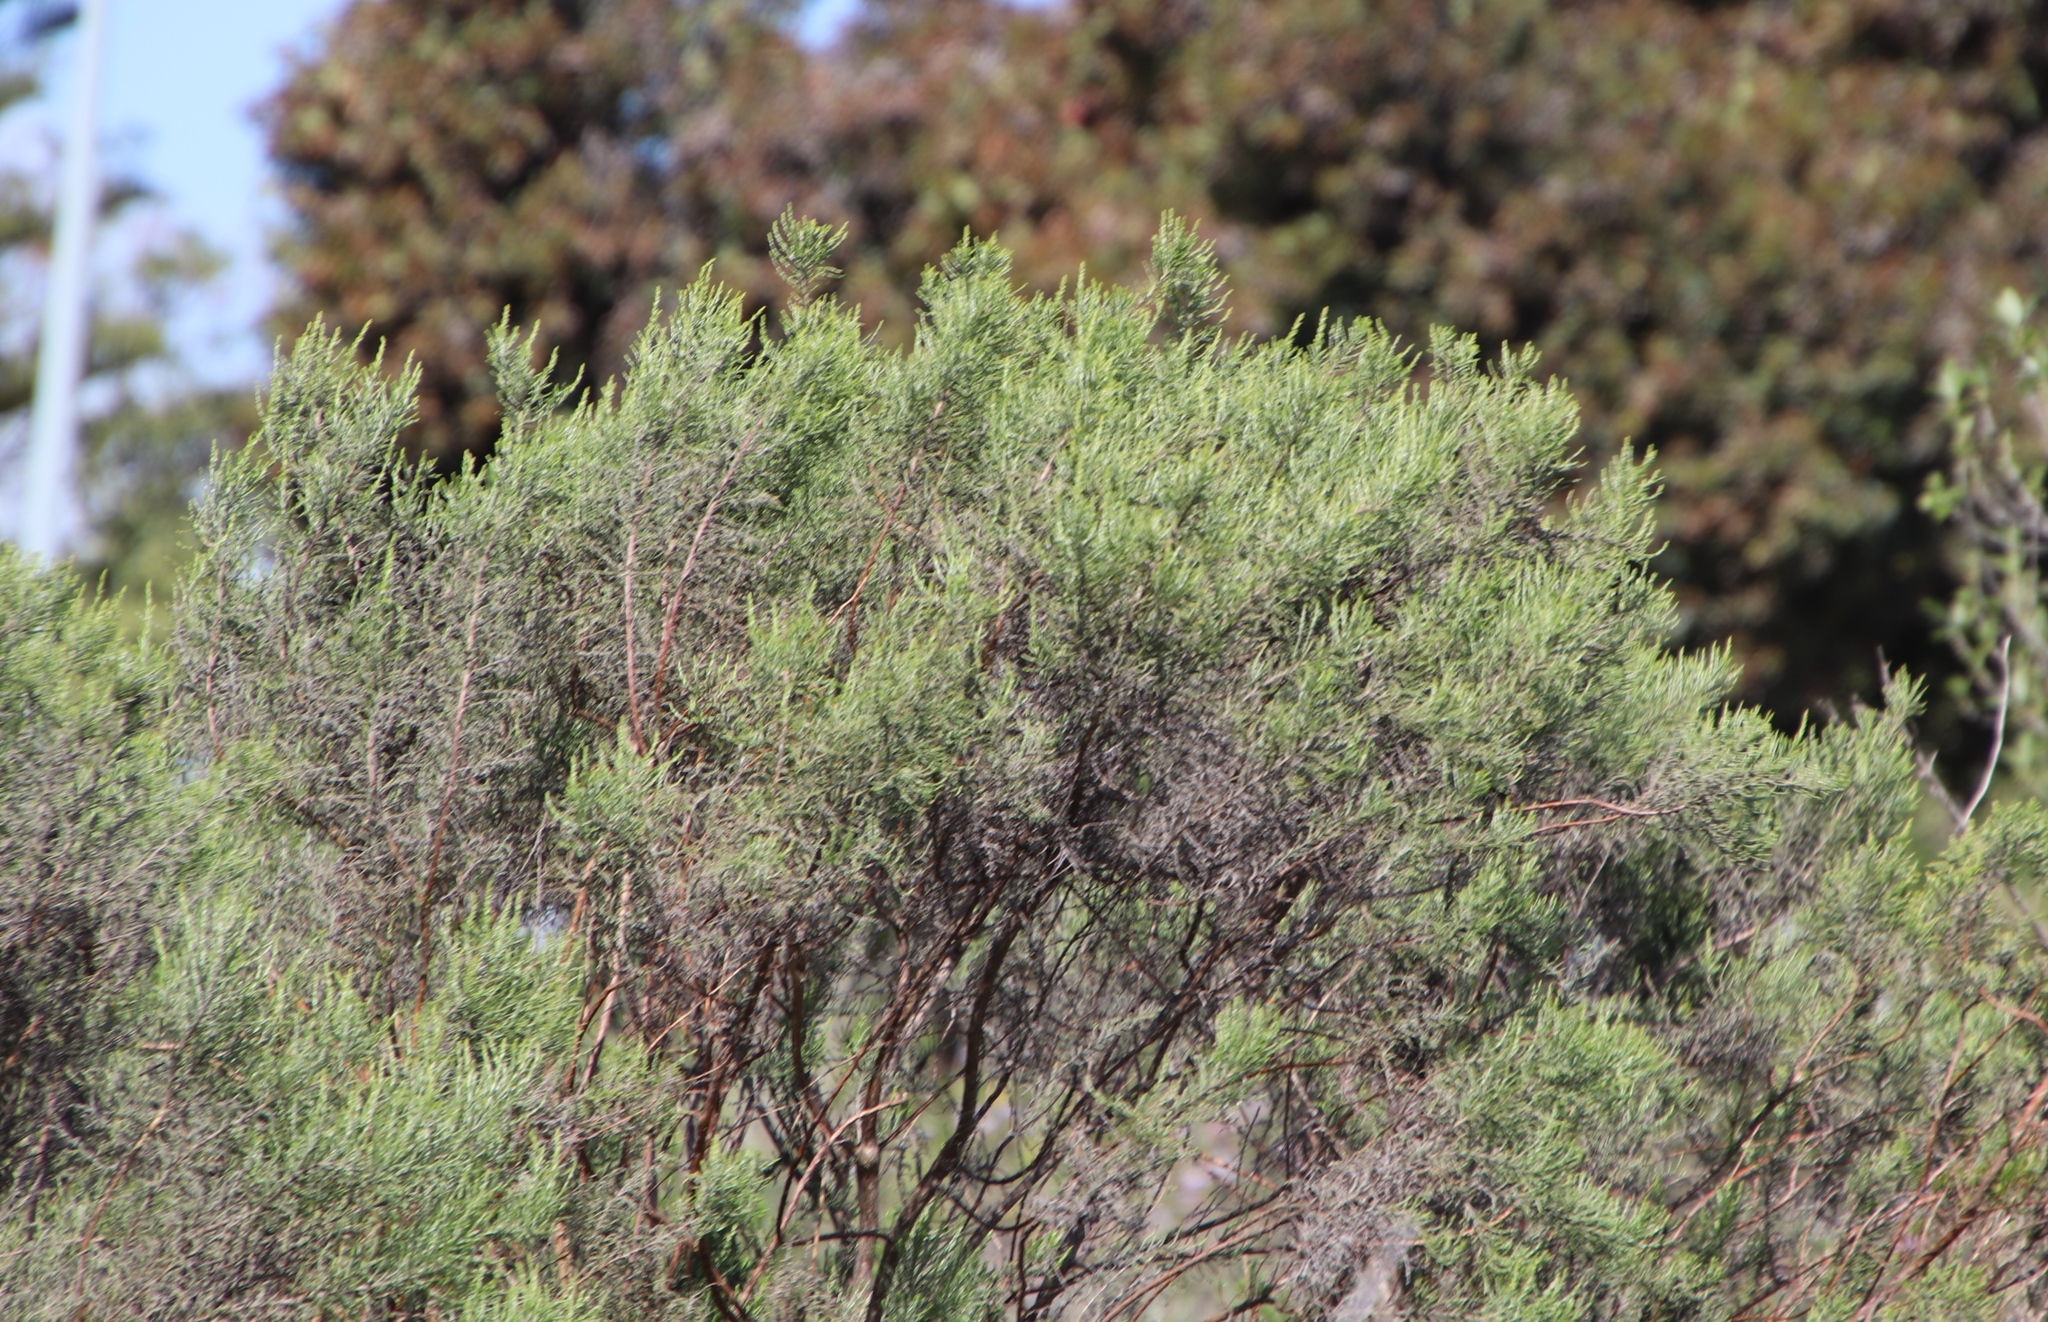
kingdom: Plantae
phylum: Tracheophyta
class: Magnoliopsida
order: Asterales
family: Asteraceae
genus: Dicerothamnus
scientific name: Dicerothamnus rhinocerotis
